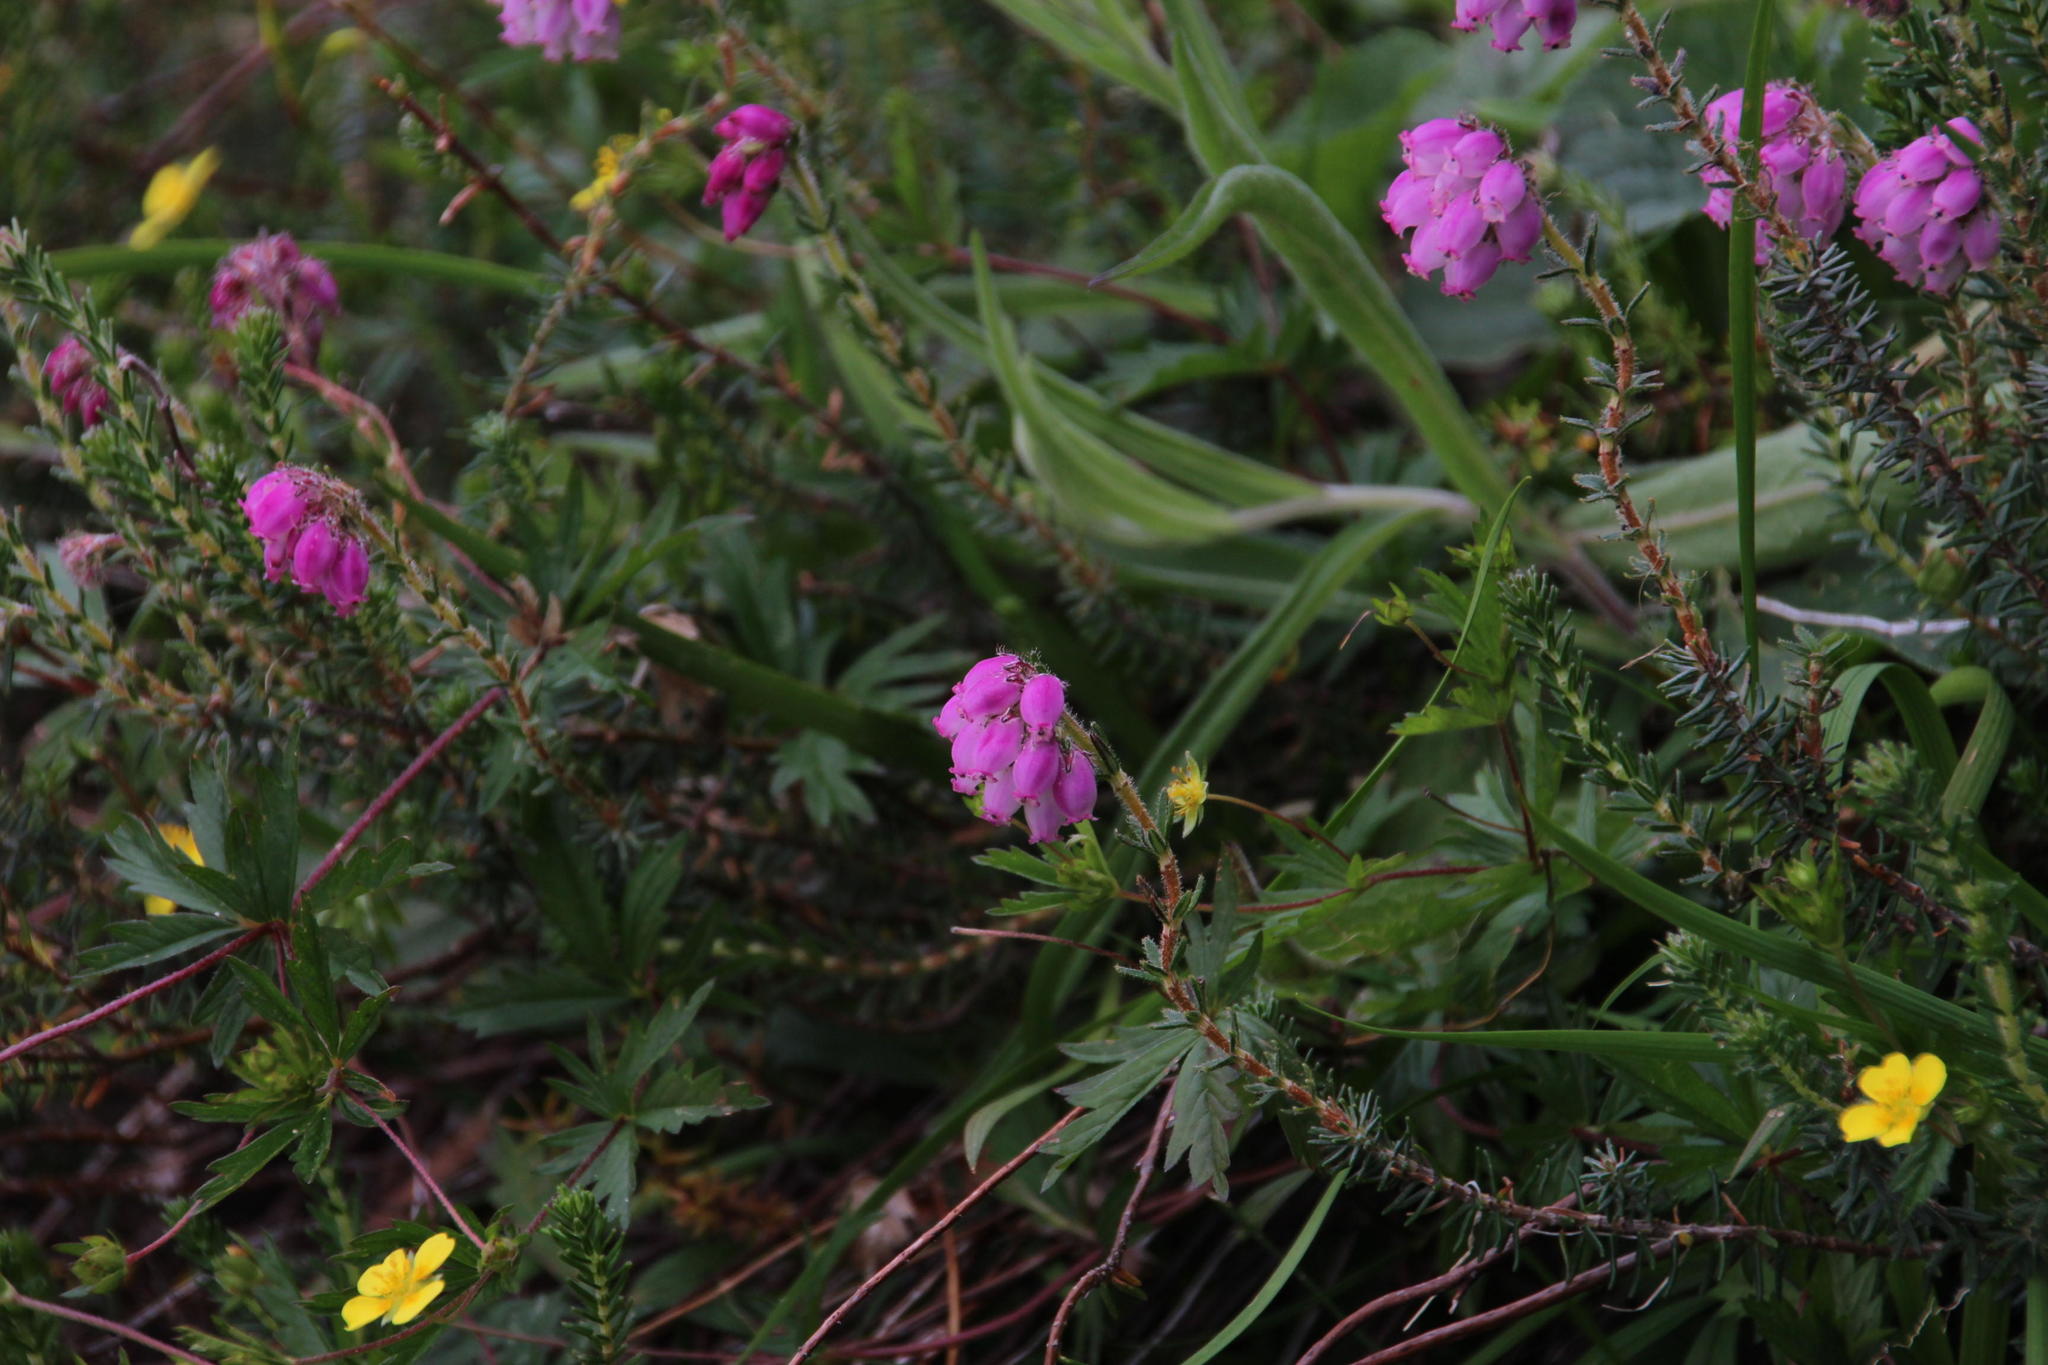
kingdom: Plantae
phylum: Tracheophyta
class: Magnoliopsida
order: Ericales
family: Ericaceae
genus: Erica
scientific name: Erica tetralix
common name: Cross-leaved heath
